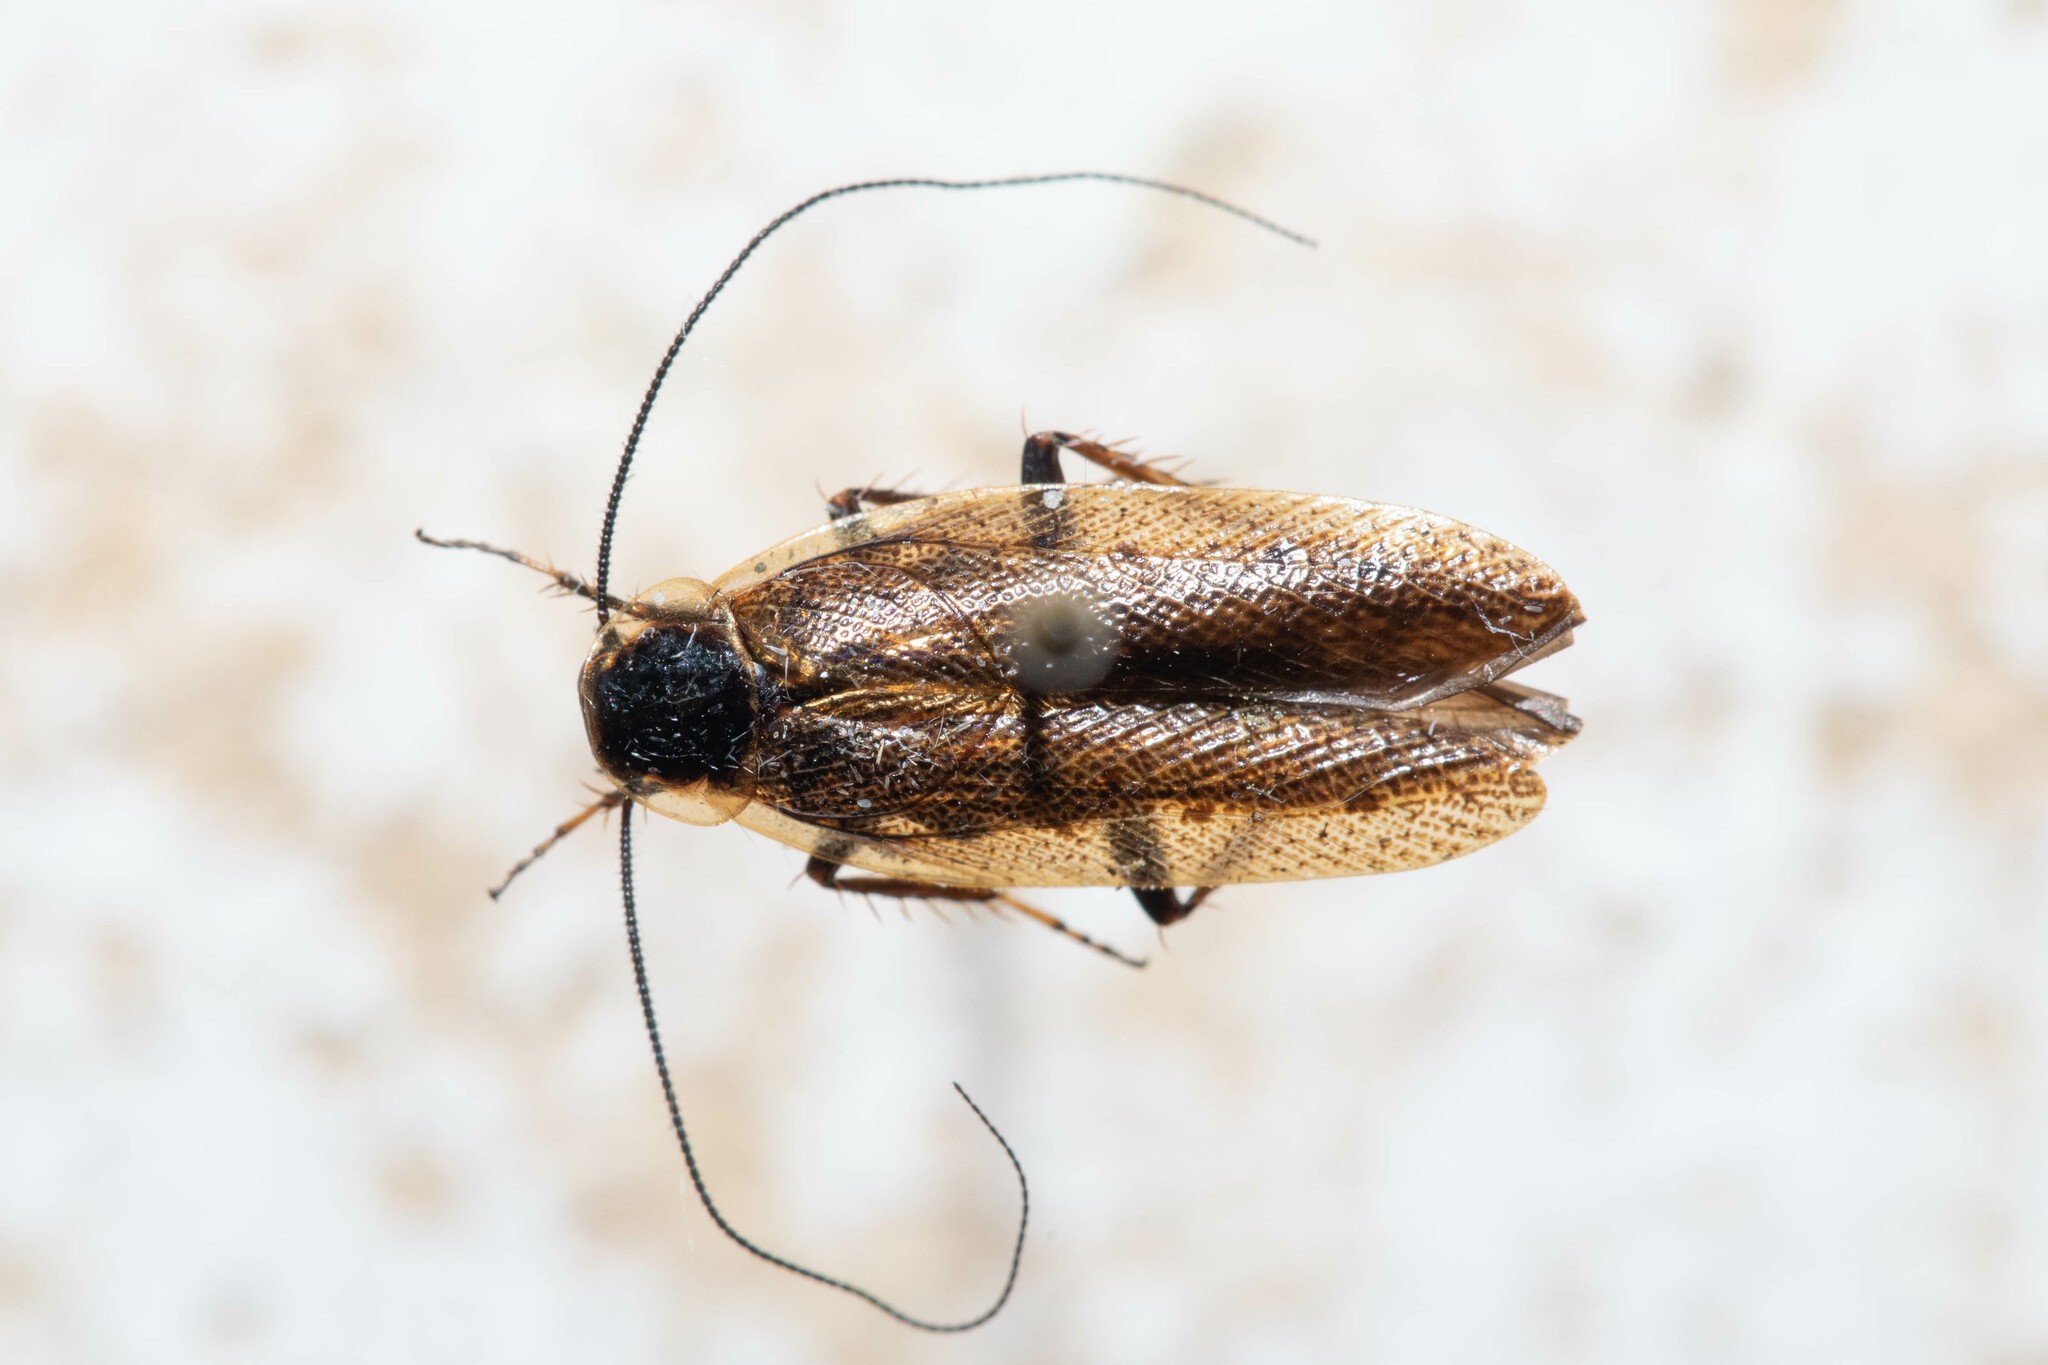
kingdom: Animalia
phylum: Arthropoda
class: Insecta
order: Blattodea
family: Ectobiidae
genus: Ectobius
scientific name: Ectobius lapponicus
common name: Dusky cockroach
